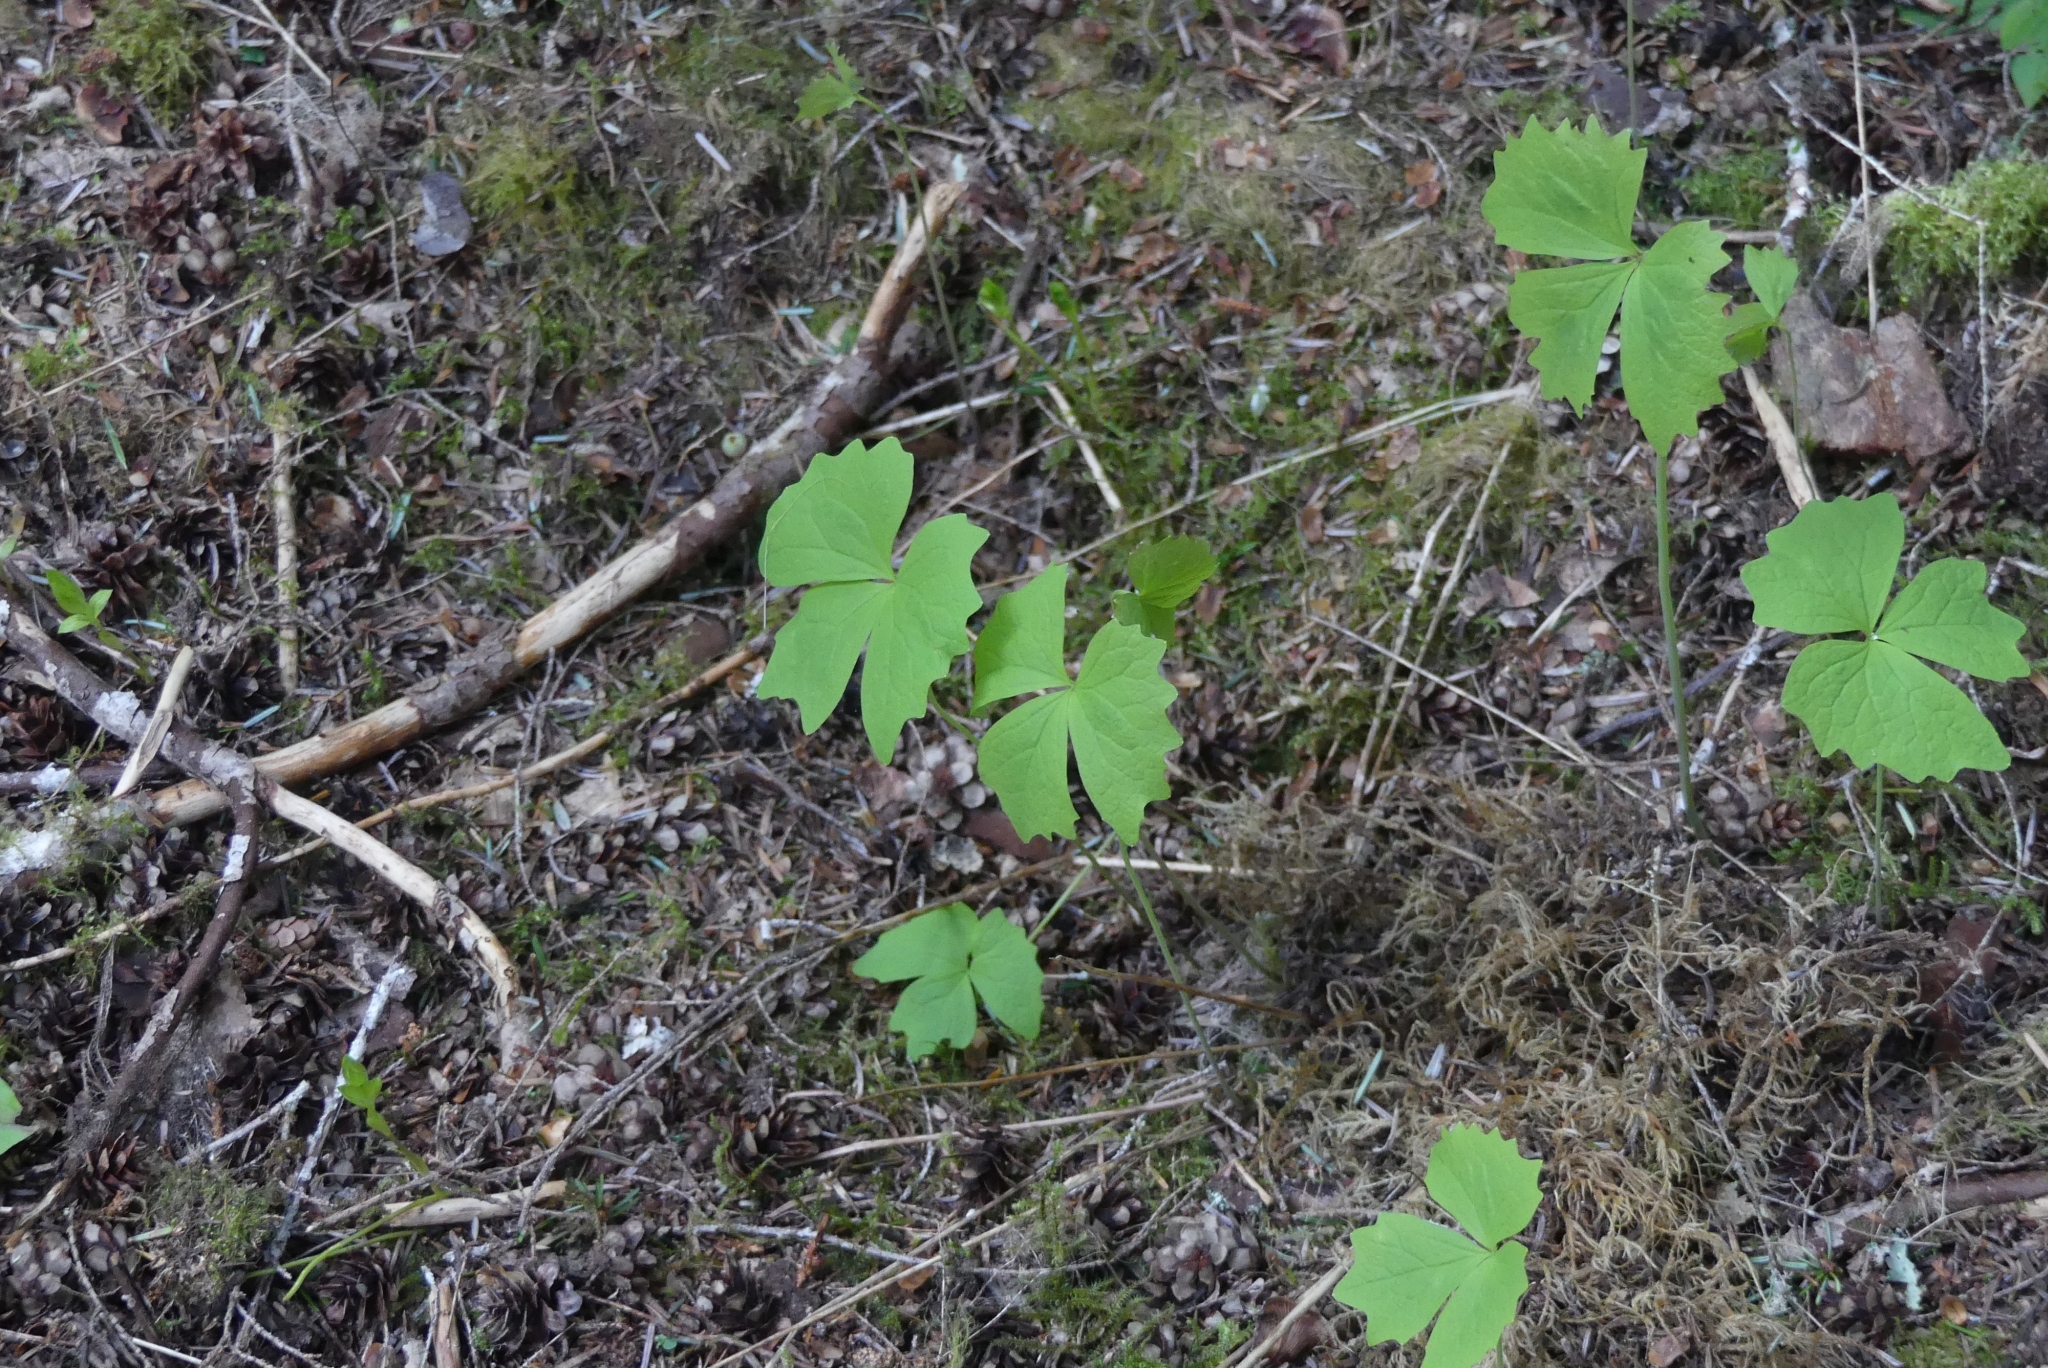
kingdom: Plantae
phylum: Tracheophyta
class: Magnoliopsida
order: Ranunculales
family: Berberidaceae
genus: Achlys
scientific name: Achlys triphylla
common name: Vanilla-leaf
